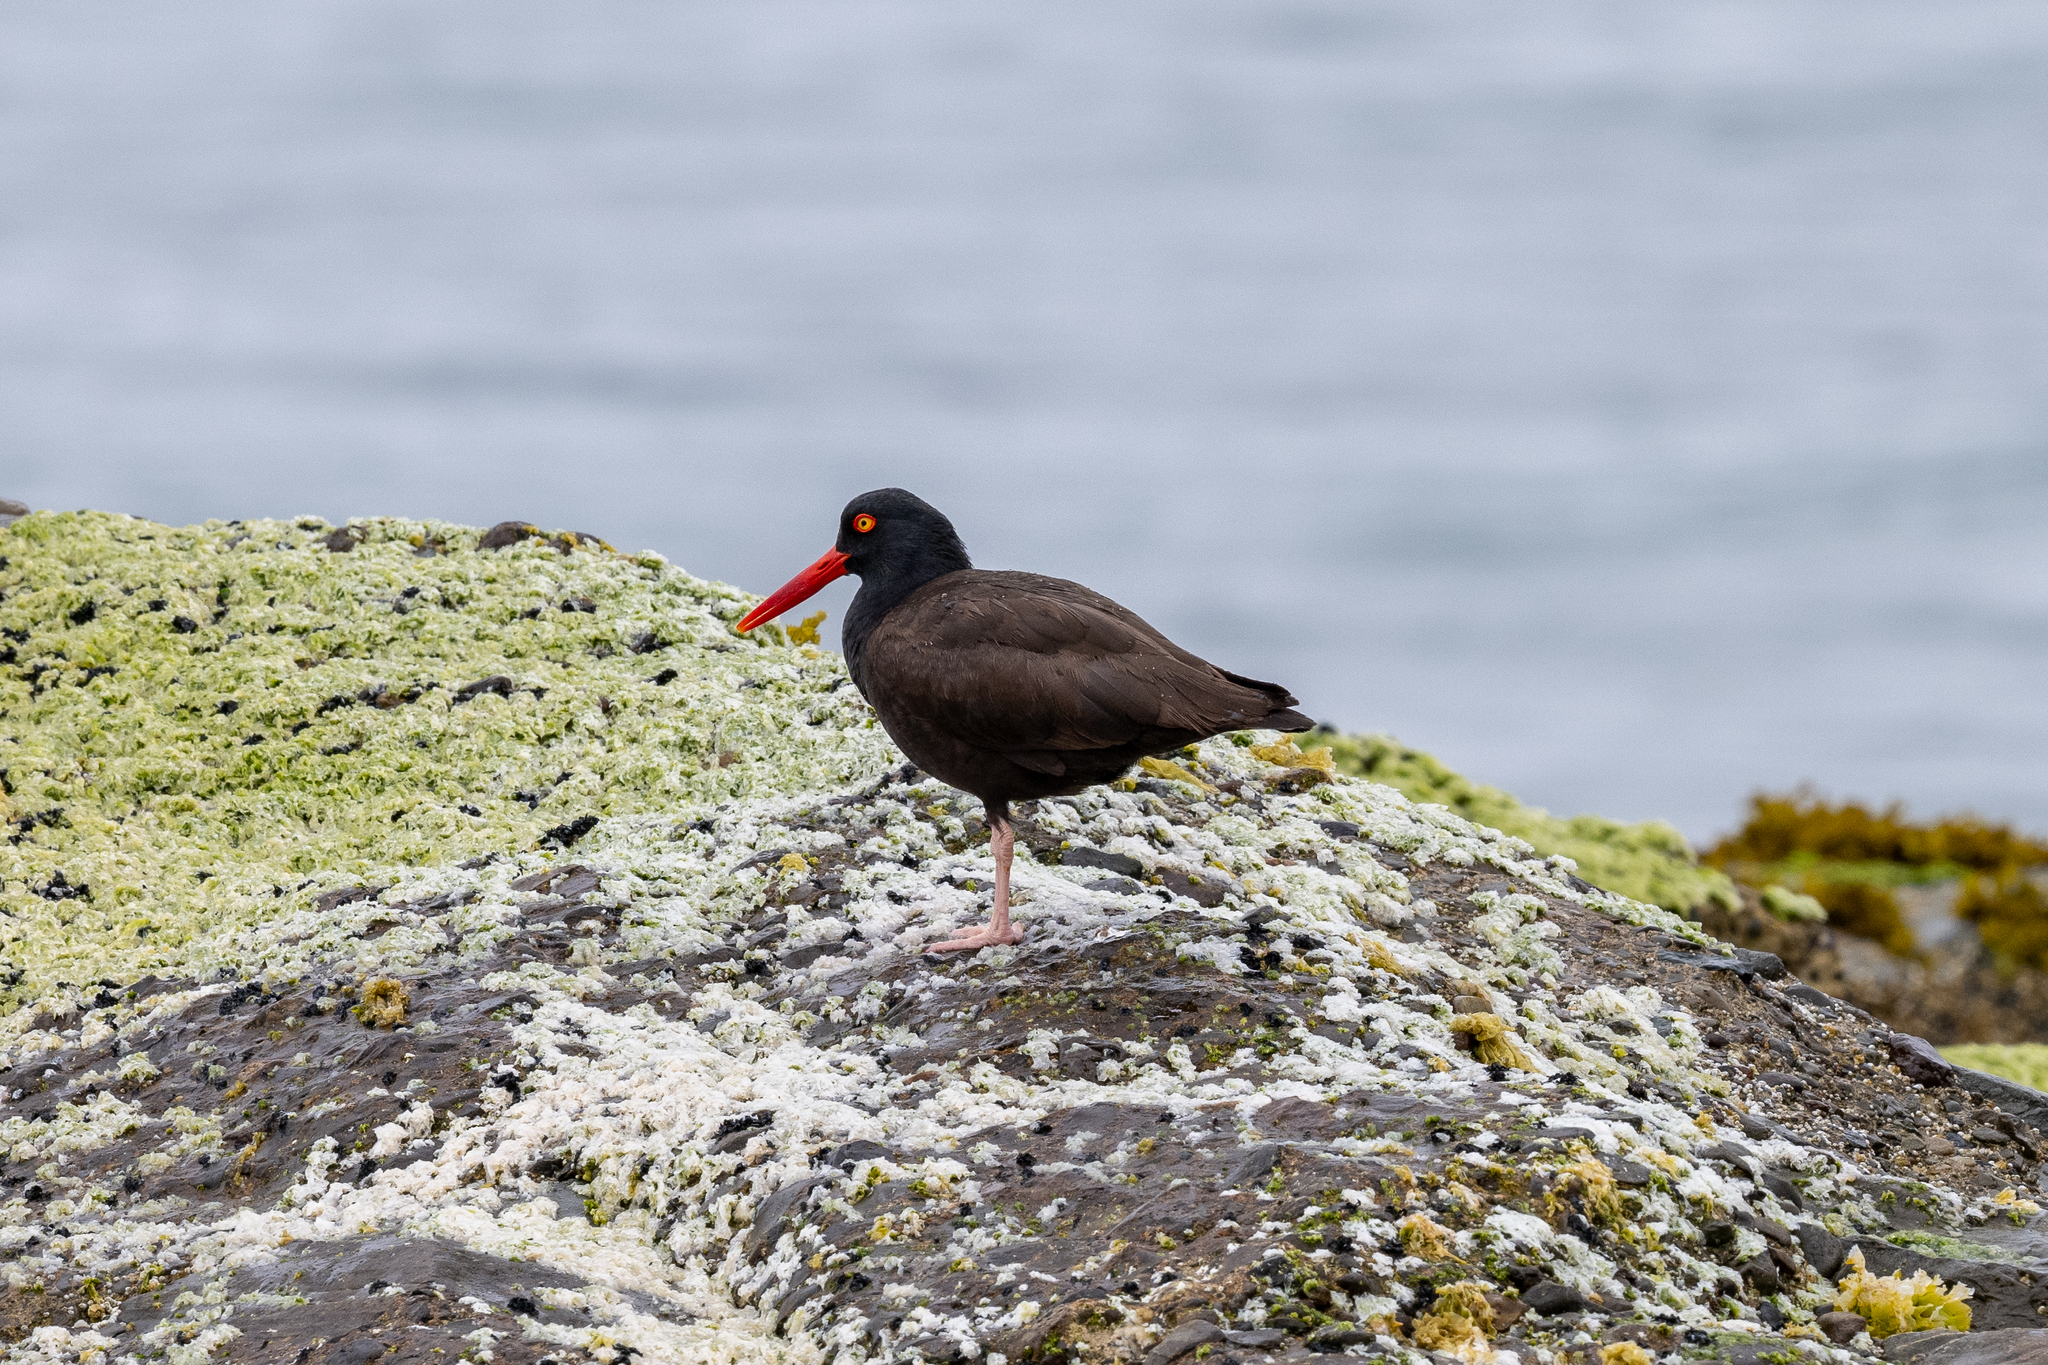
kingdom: Animalia
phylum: Chordata
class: Aves
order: Charadriiformes
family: Haematopodidae
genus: Haematopus
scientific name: Haematopus bachmani
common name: Black oystercatcher
